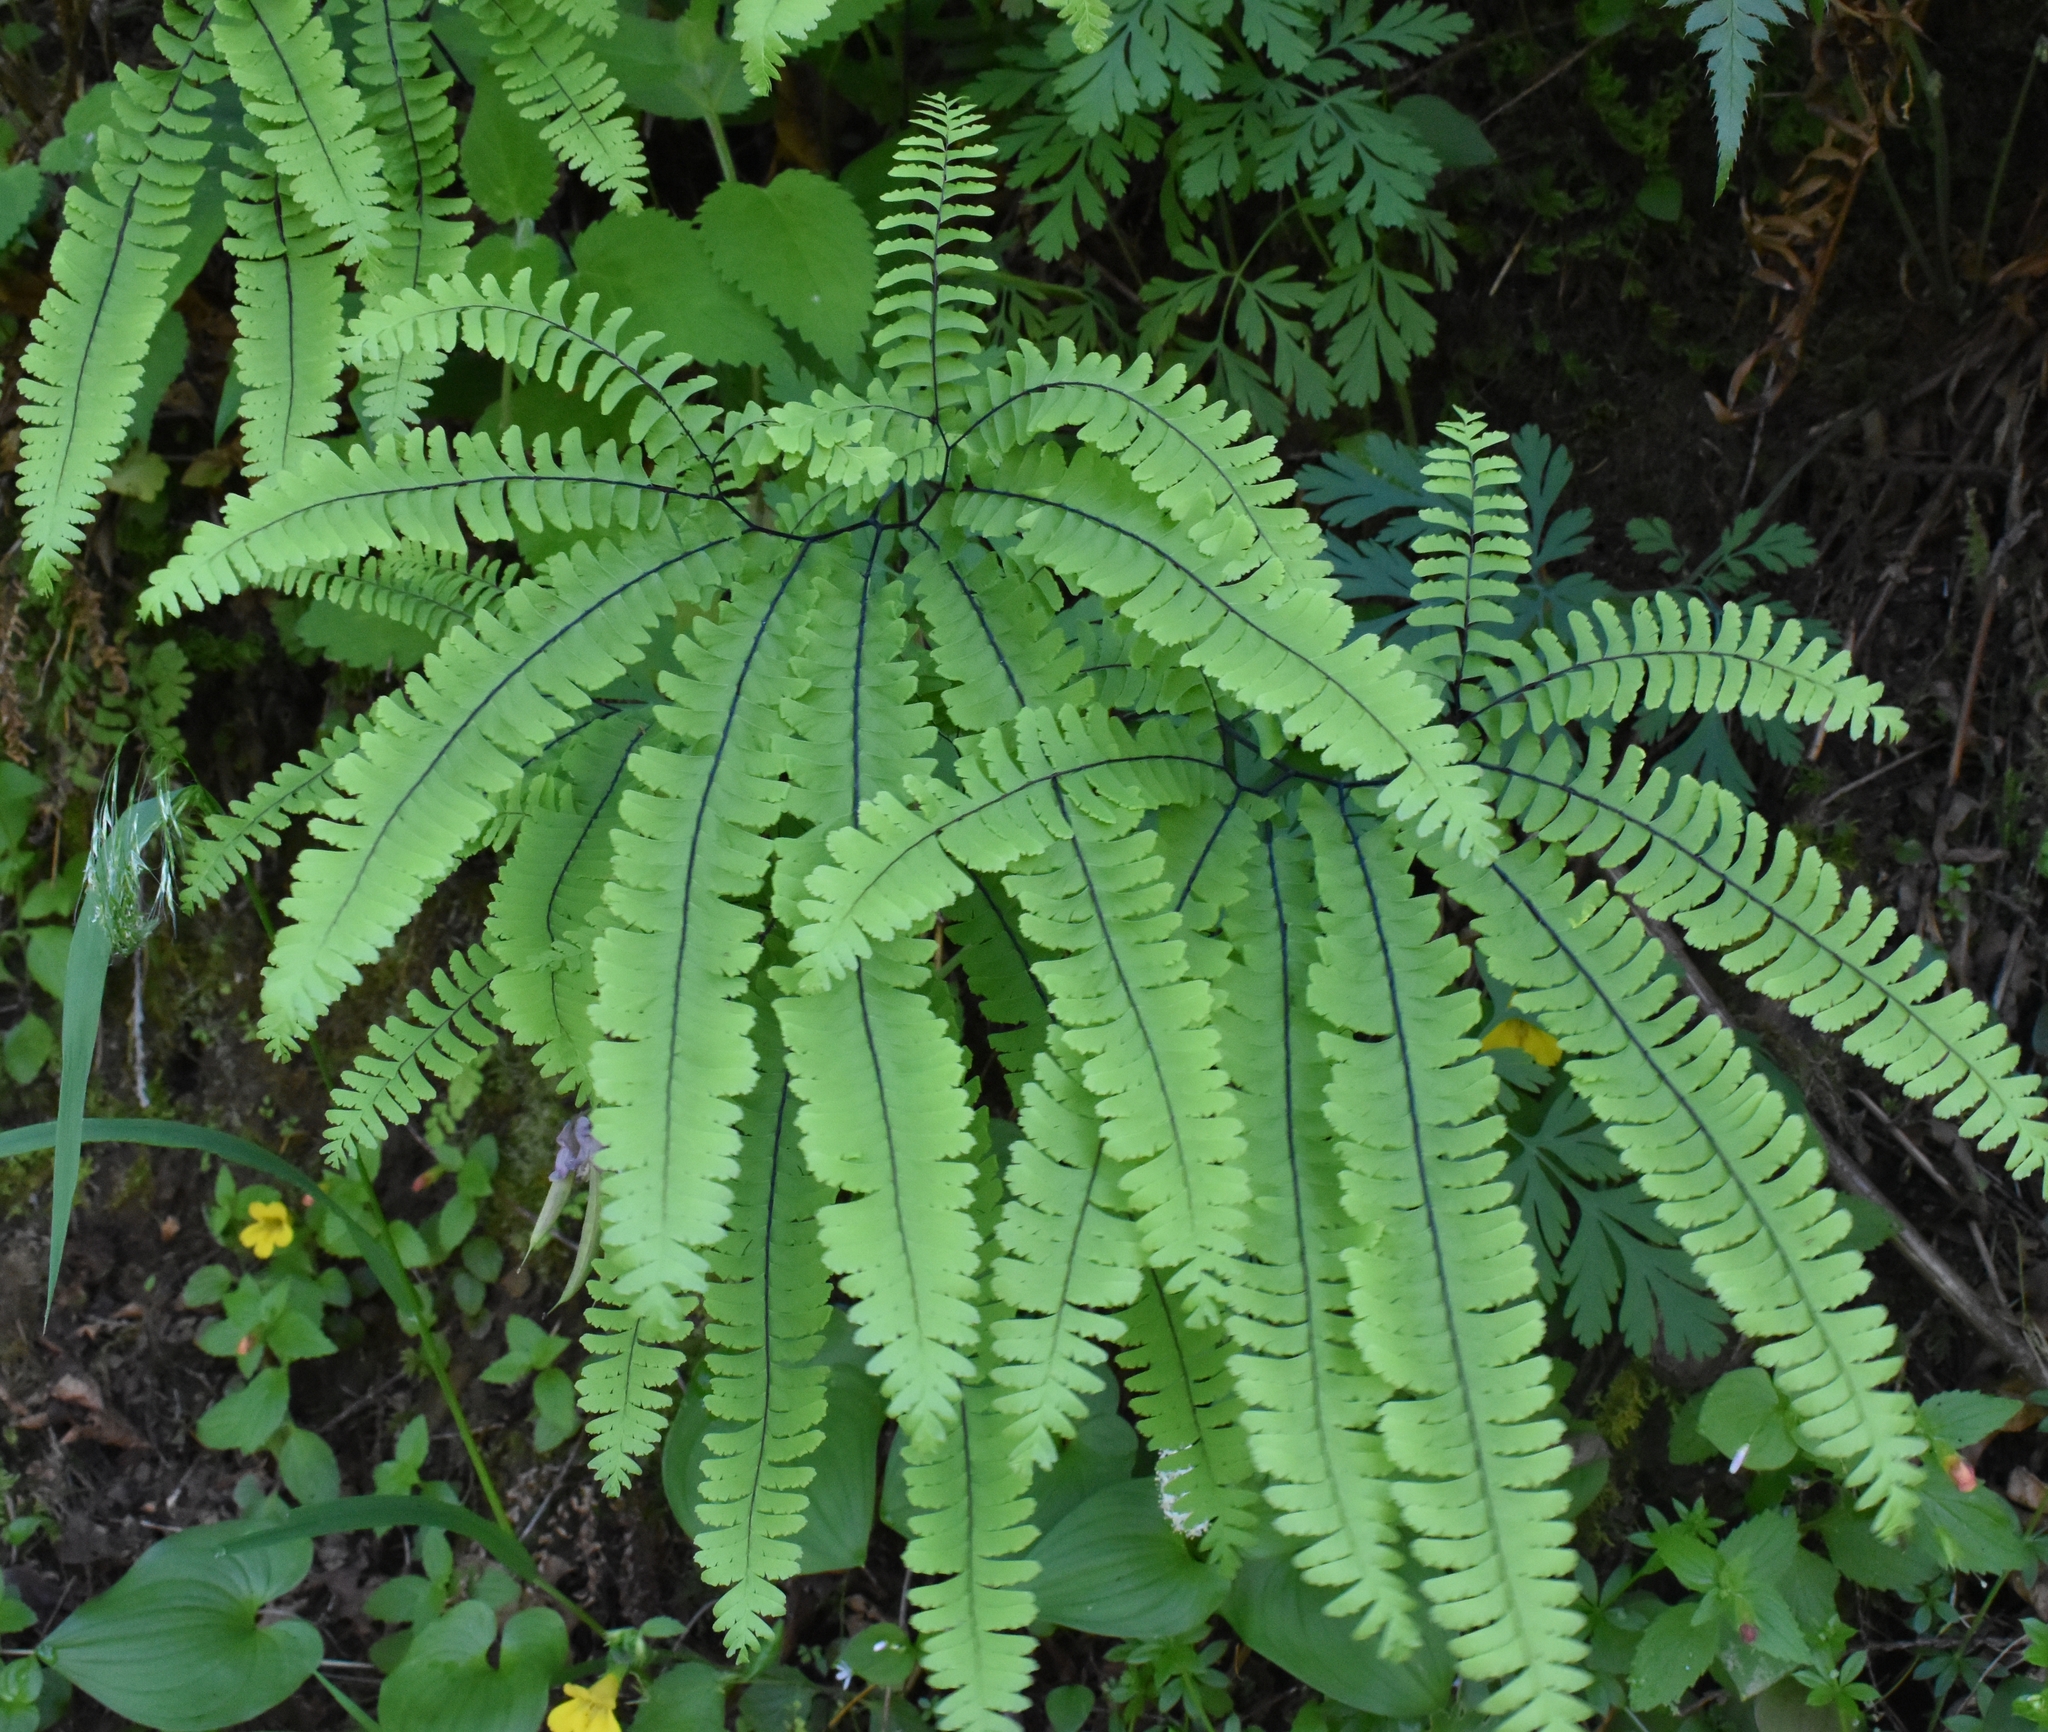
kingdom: Plantae
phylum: Tracheophyta
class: Polypodiopsida
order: Polypodiales
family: Pteridaceae
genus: Adiantum
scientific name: Adiantum aleuticum
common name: Aleutian maidenhair fern
